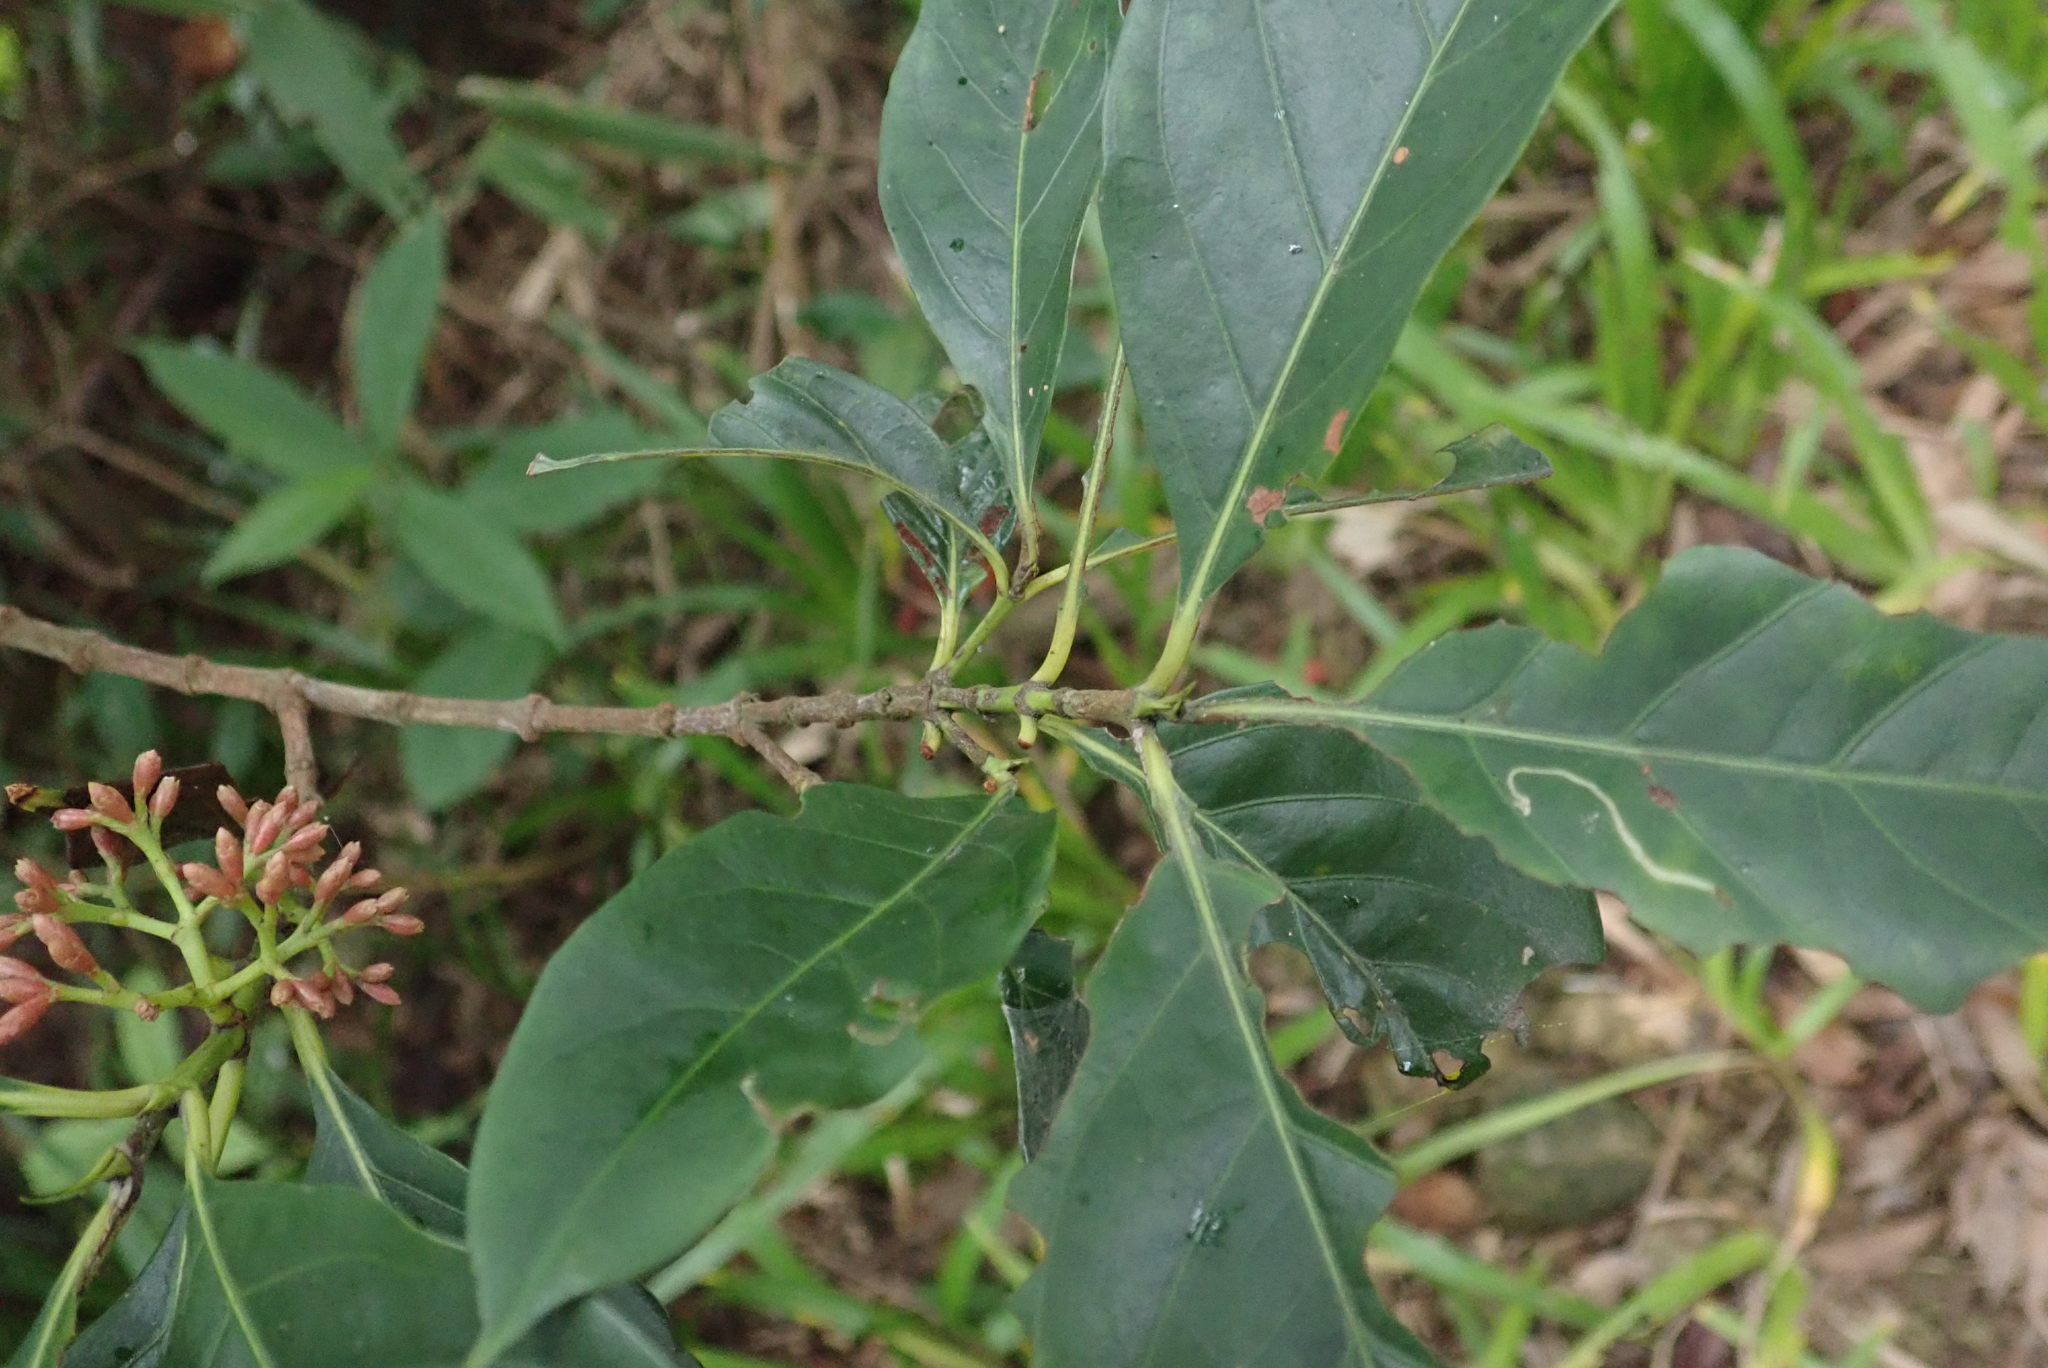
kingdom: Plantae
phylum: Tracheophyta
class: Magnoliopsida
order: Gentianales
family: Rubiaceae
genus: Aidia
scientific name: Aidia cochinchinensis
